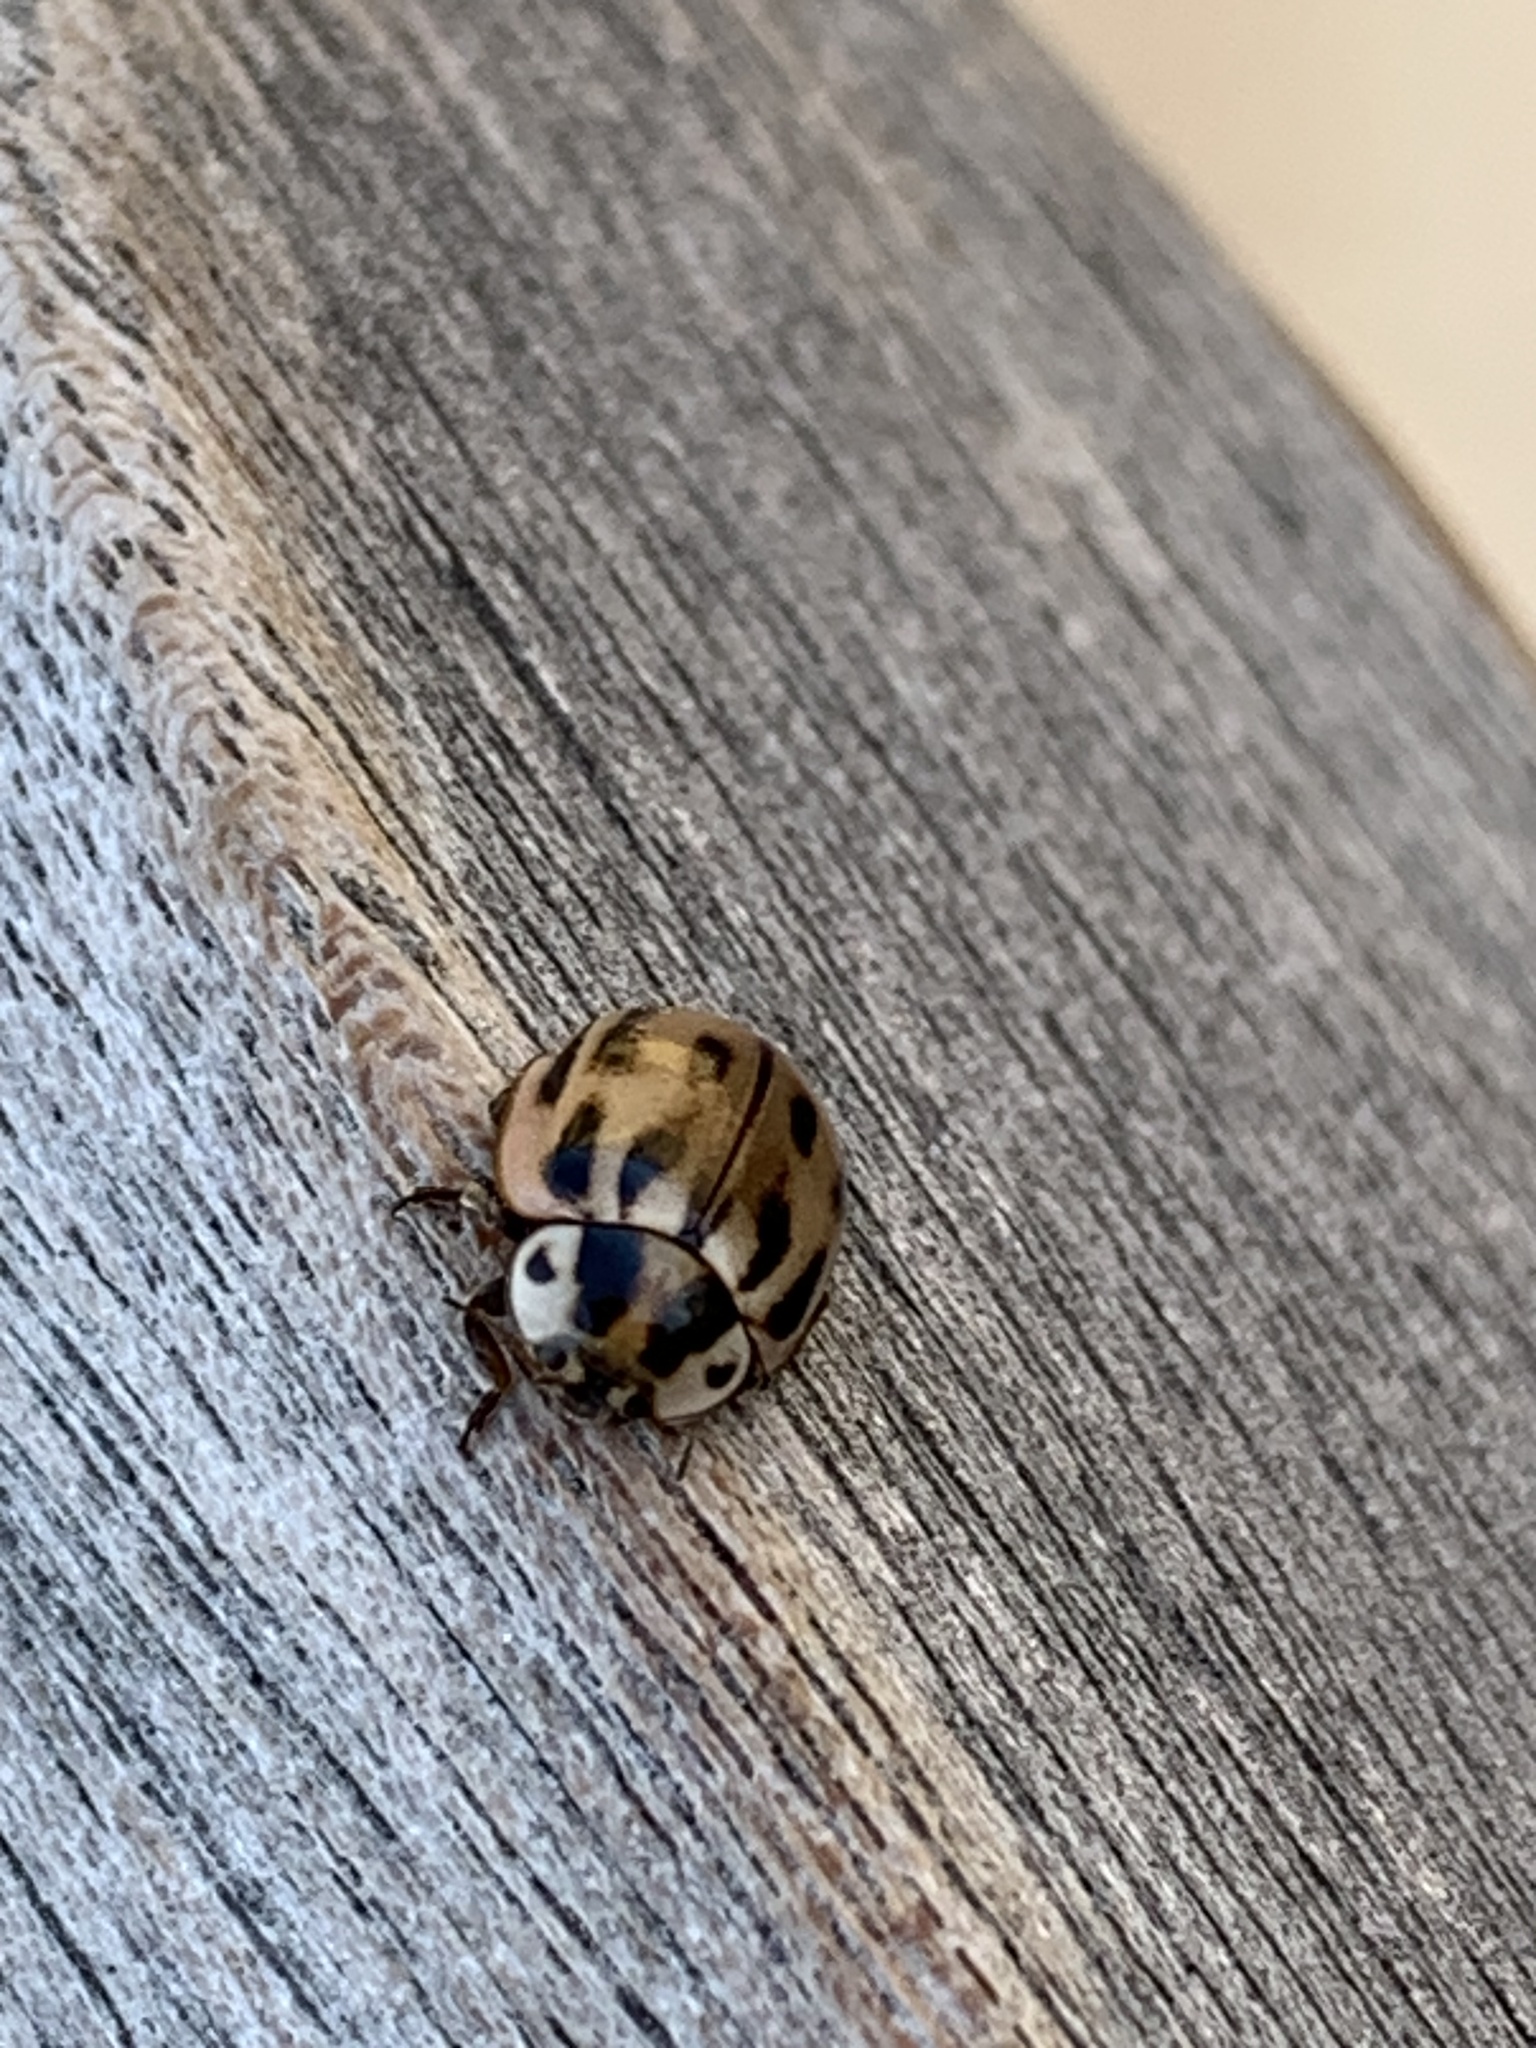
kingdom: Animalia
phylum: Arthropoda
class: Insecta
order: Coleoptera
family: Coccinellidae
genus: Myzia
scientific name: Myzia pullata
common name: Streaked lady beetle
